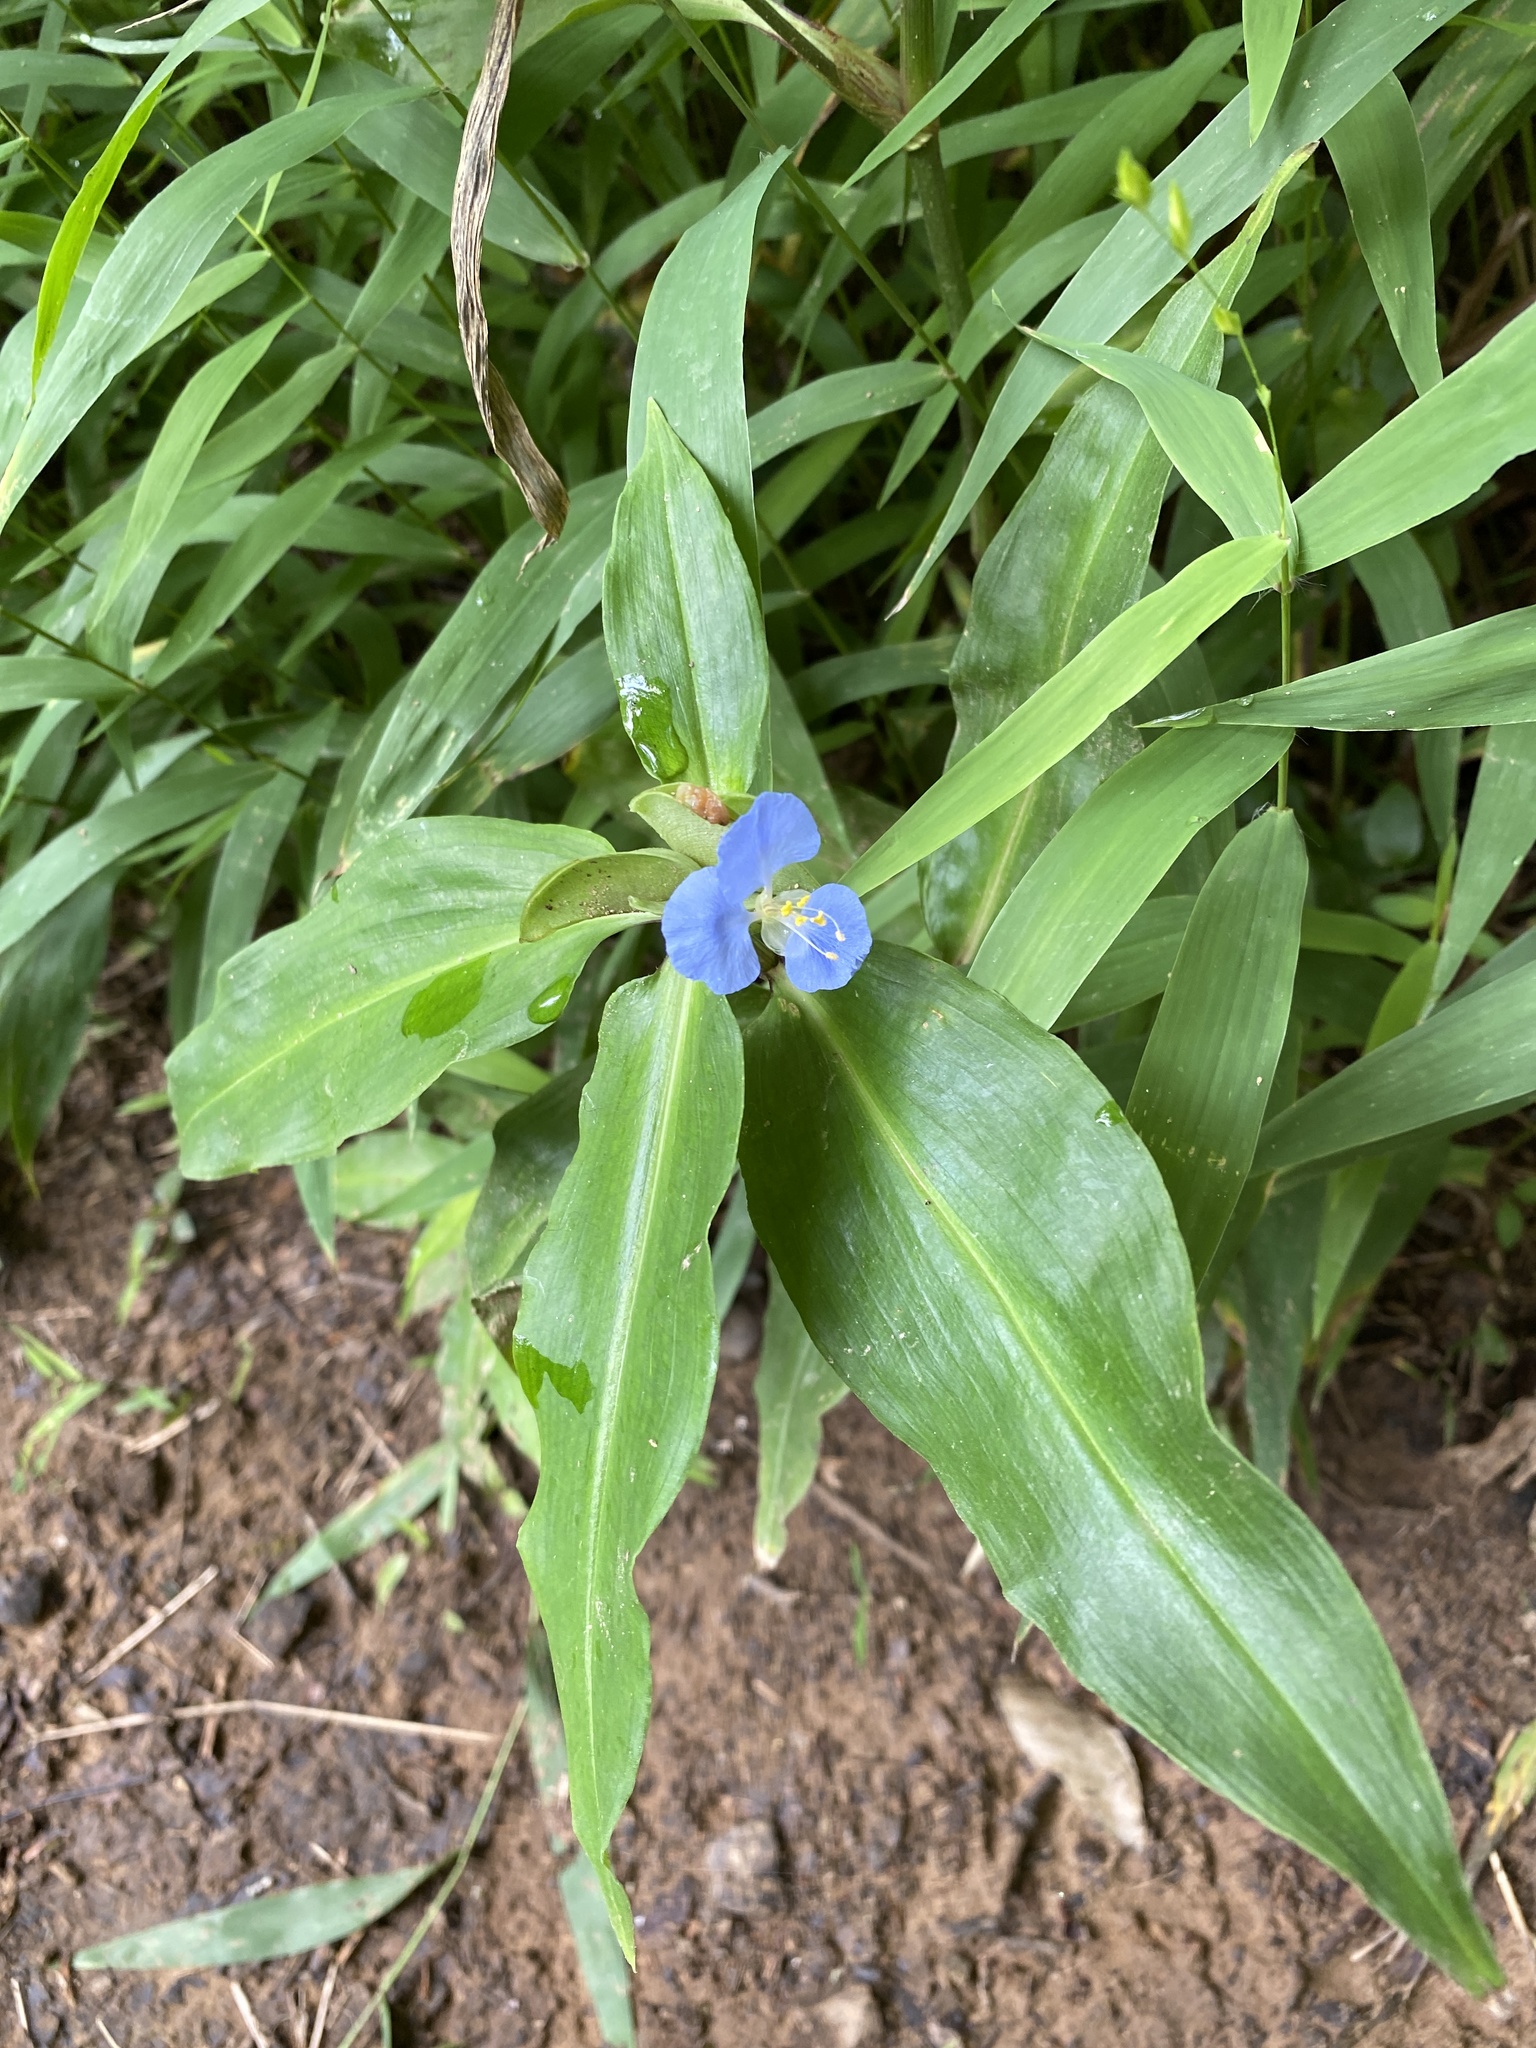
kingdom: Plantae
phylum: Tracheophyta
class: Liliopsida
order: Commelinales
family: Commelinaceae
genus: Commelina
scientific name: Commelina virginica
